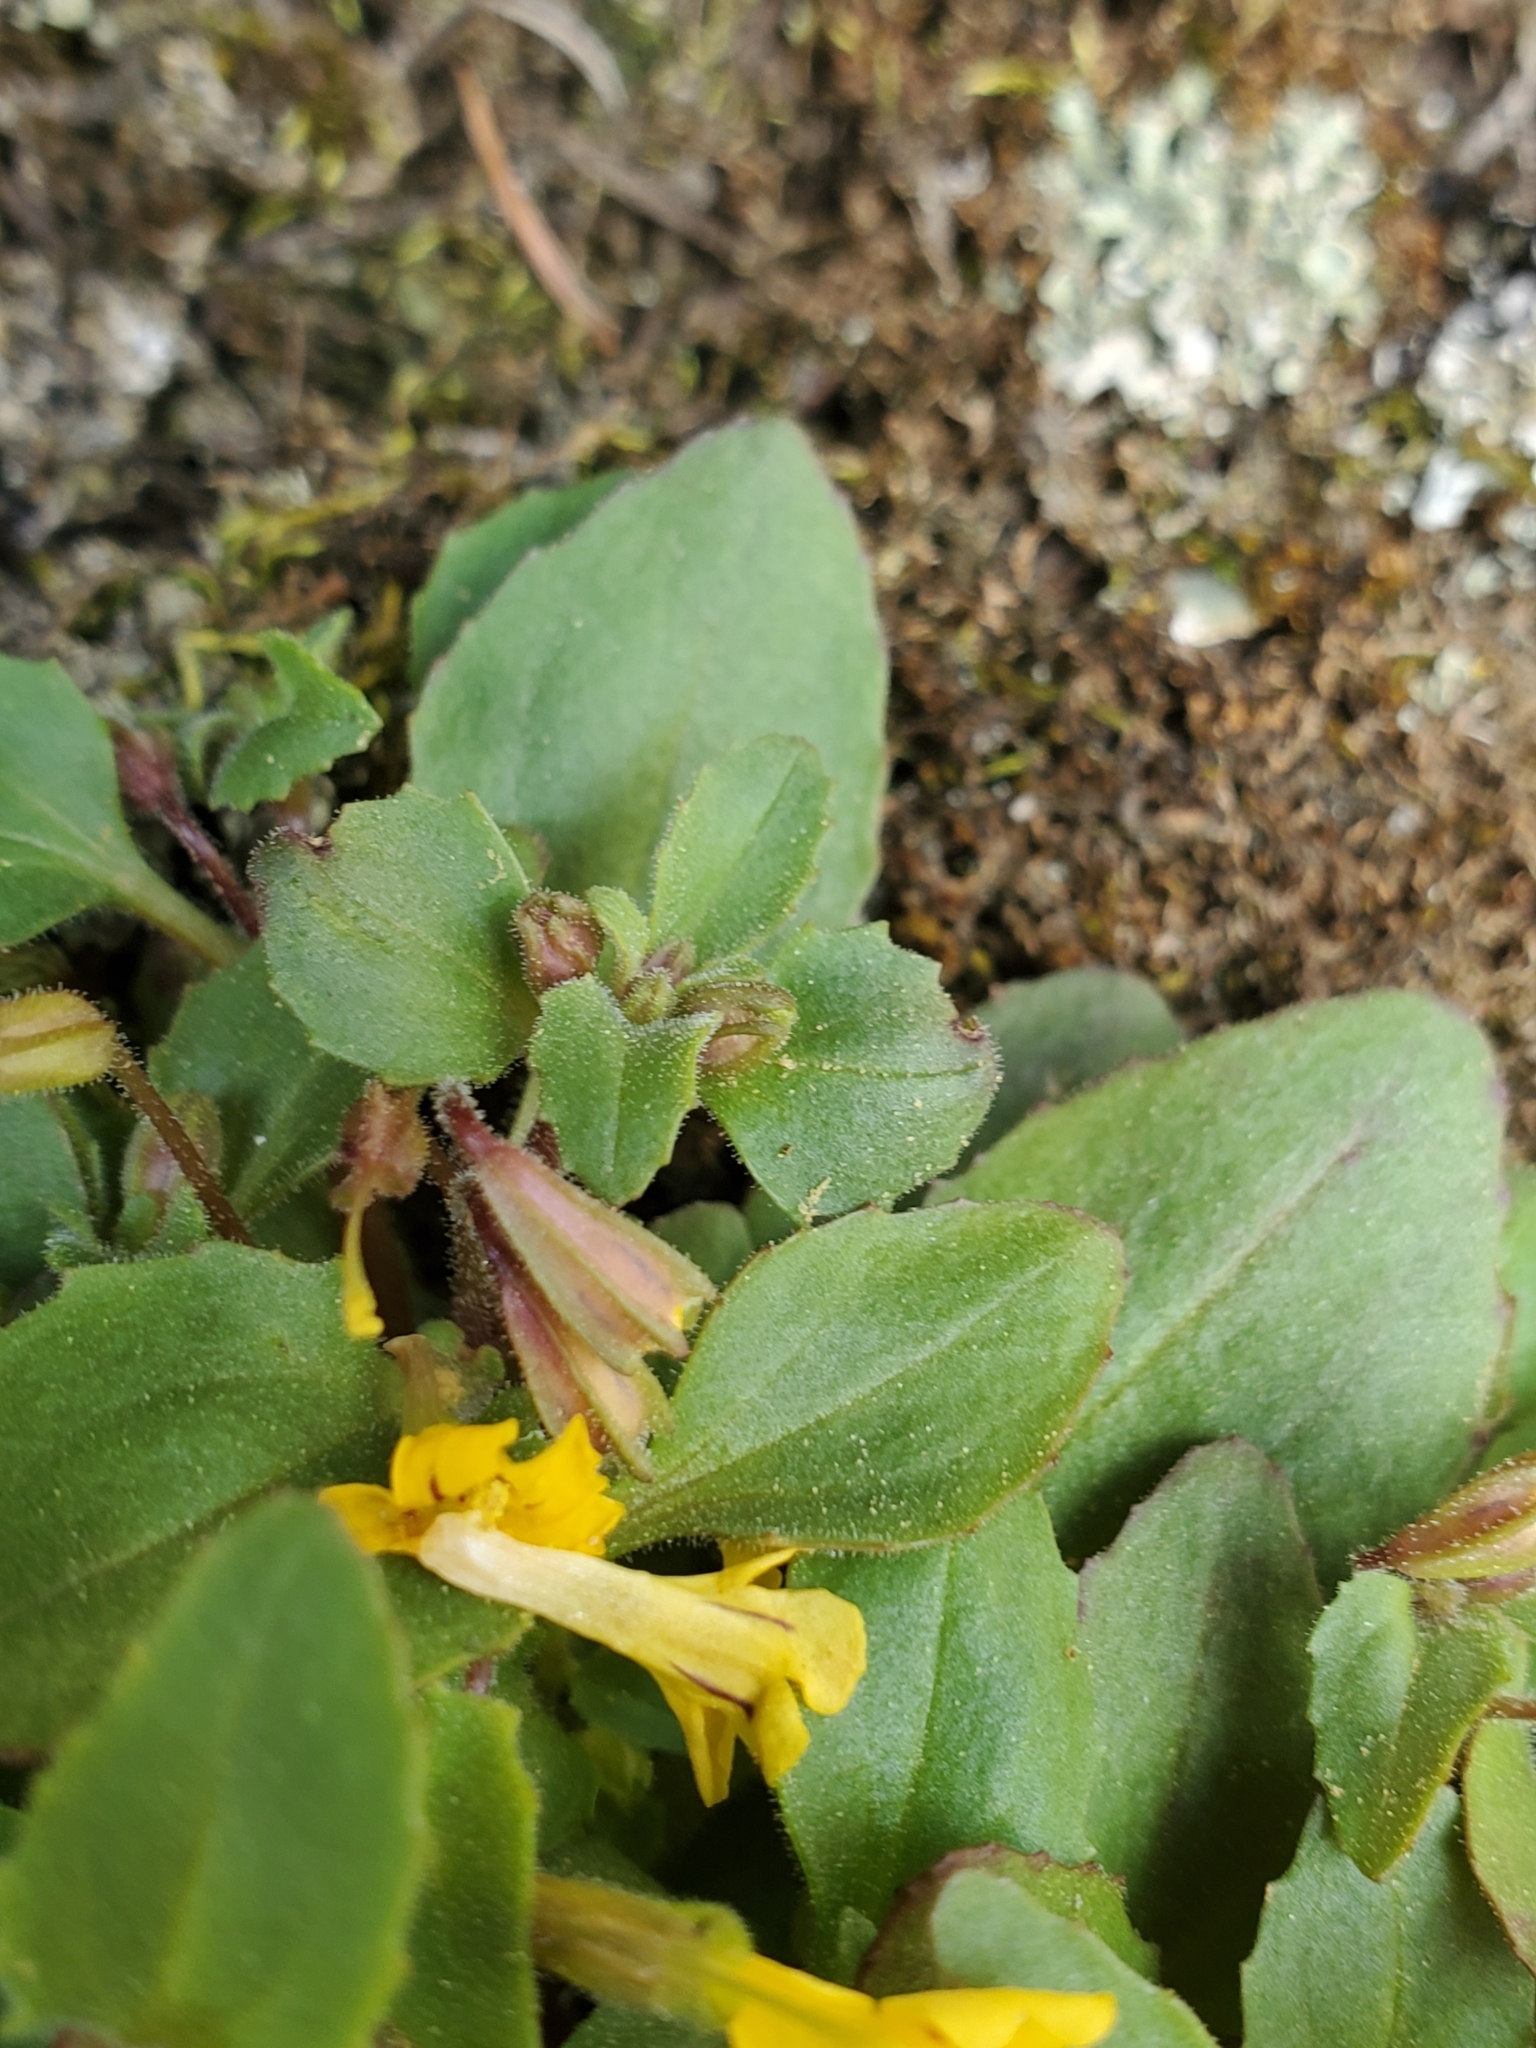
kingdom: Plantae
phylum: Tracheophyta
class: Magnoliopsida
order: Lamiales
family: Phrymaceae
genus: Erythranthe
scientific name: Erythranthe alsinoides
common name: Chickweed monkeyflower
